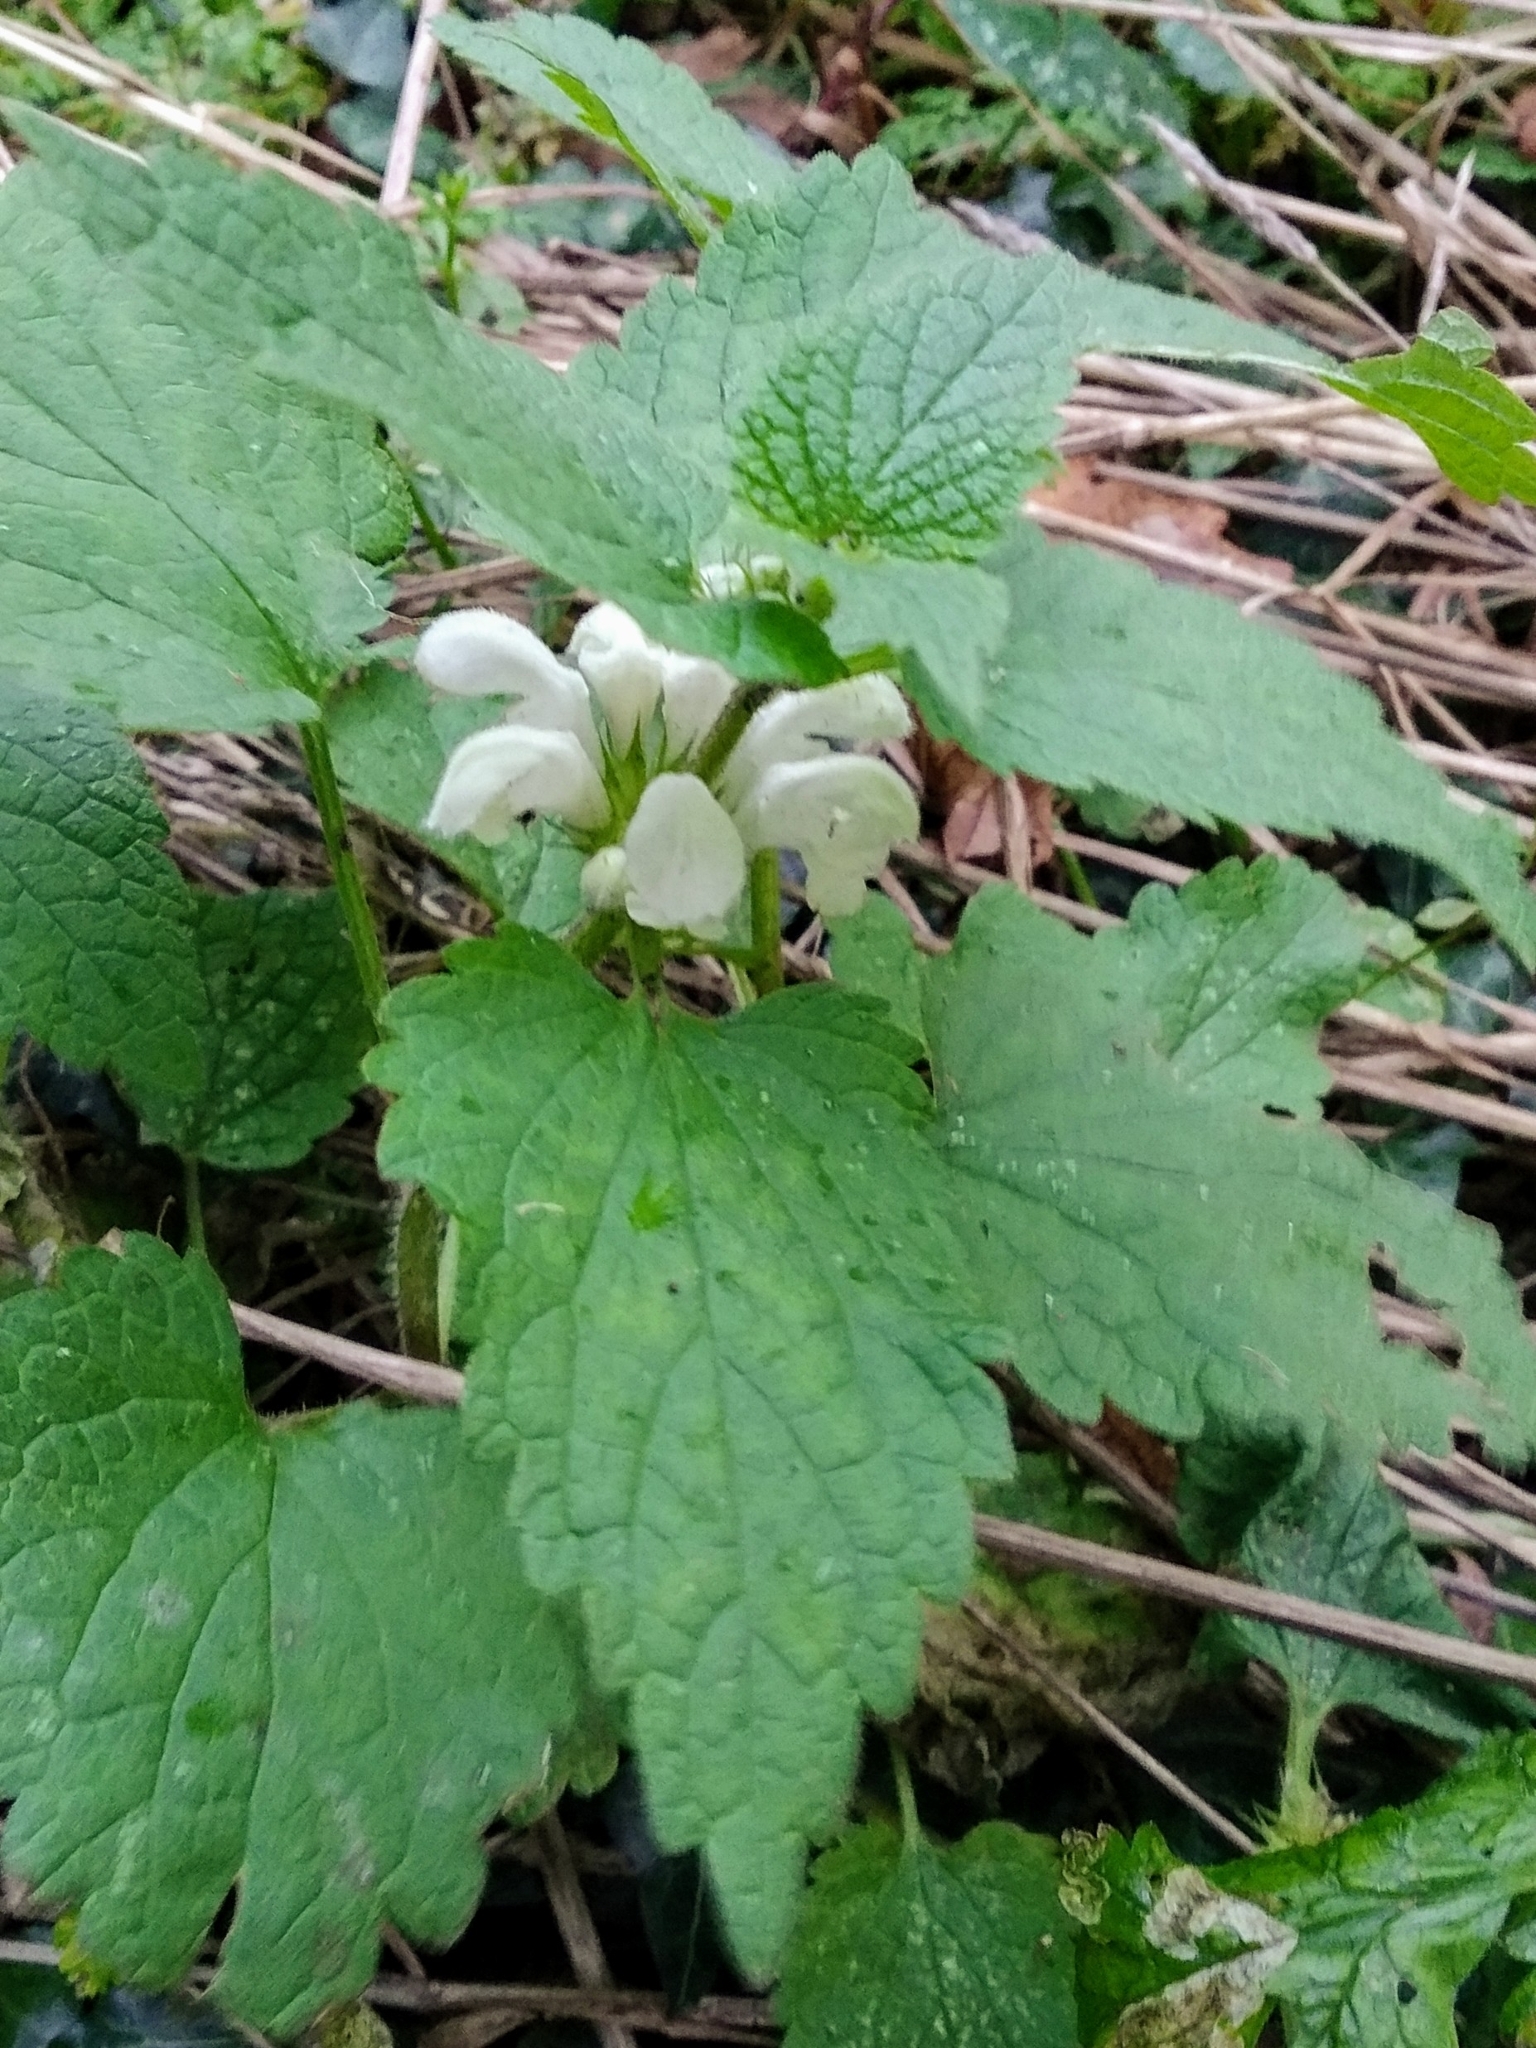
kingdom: Plantae
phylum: Tracheophyta
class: Magnoliopsida
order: Lamiales
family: Lamiaceae
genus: Lamium
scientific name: Lamium album
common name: White dead-nettle
